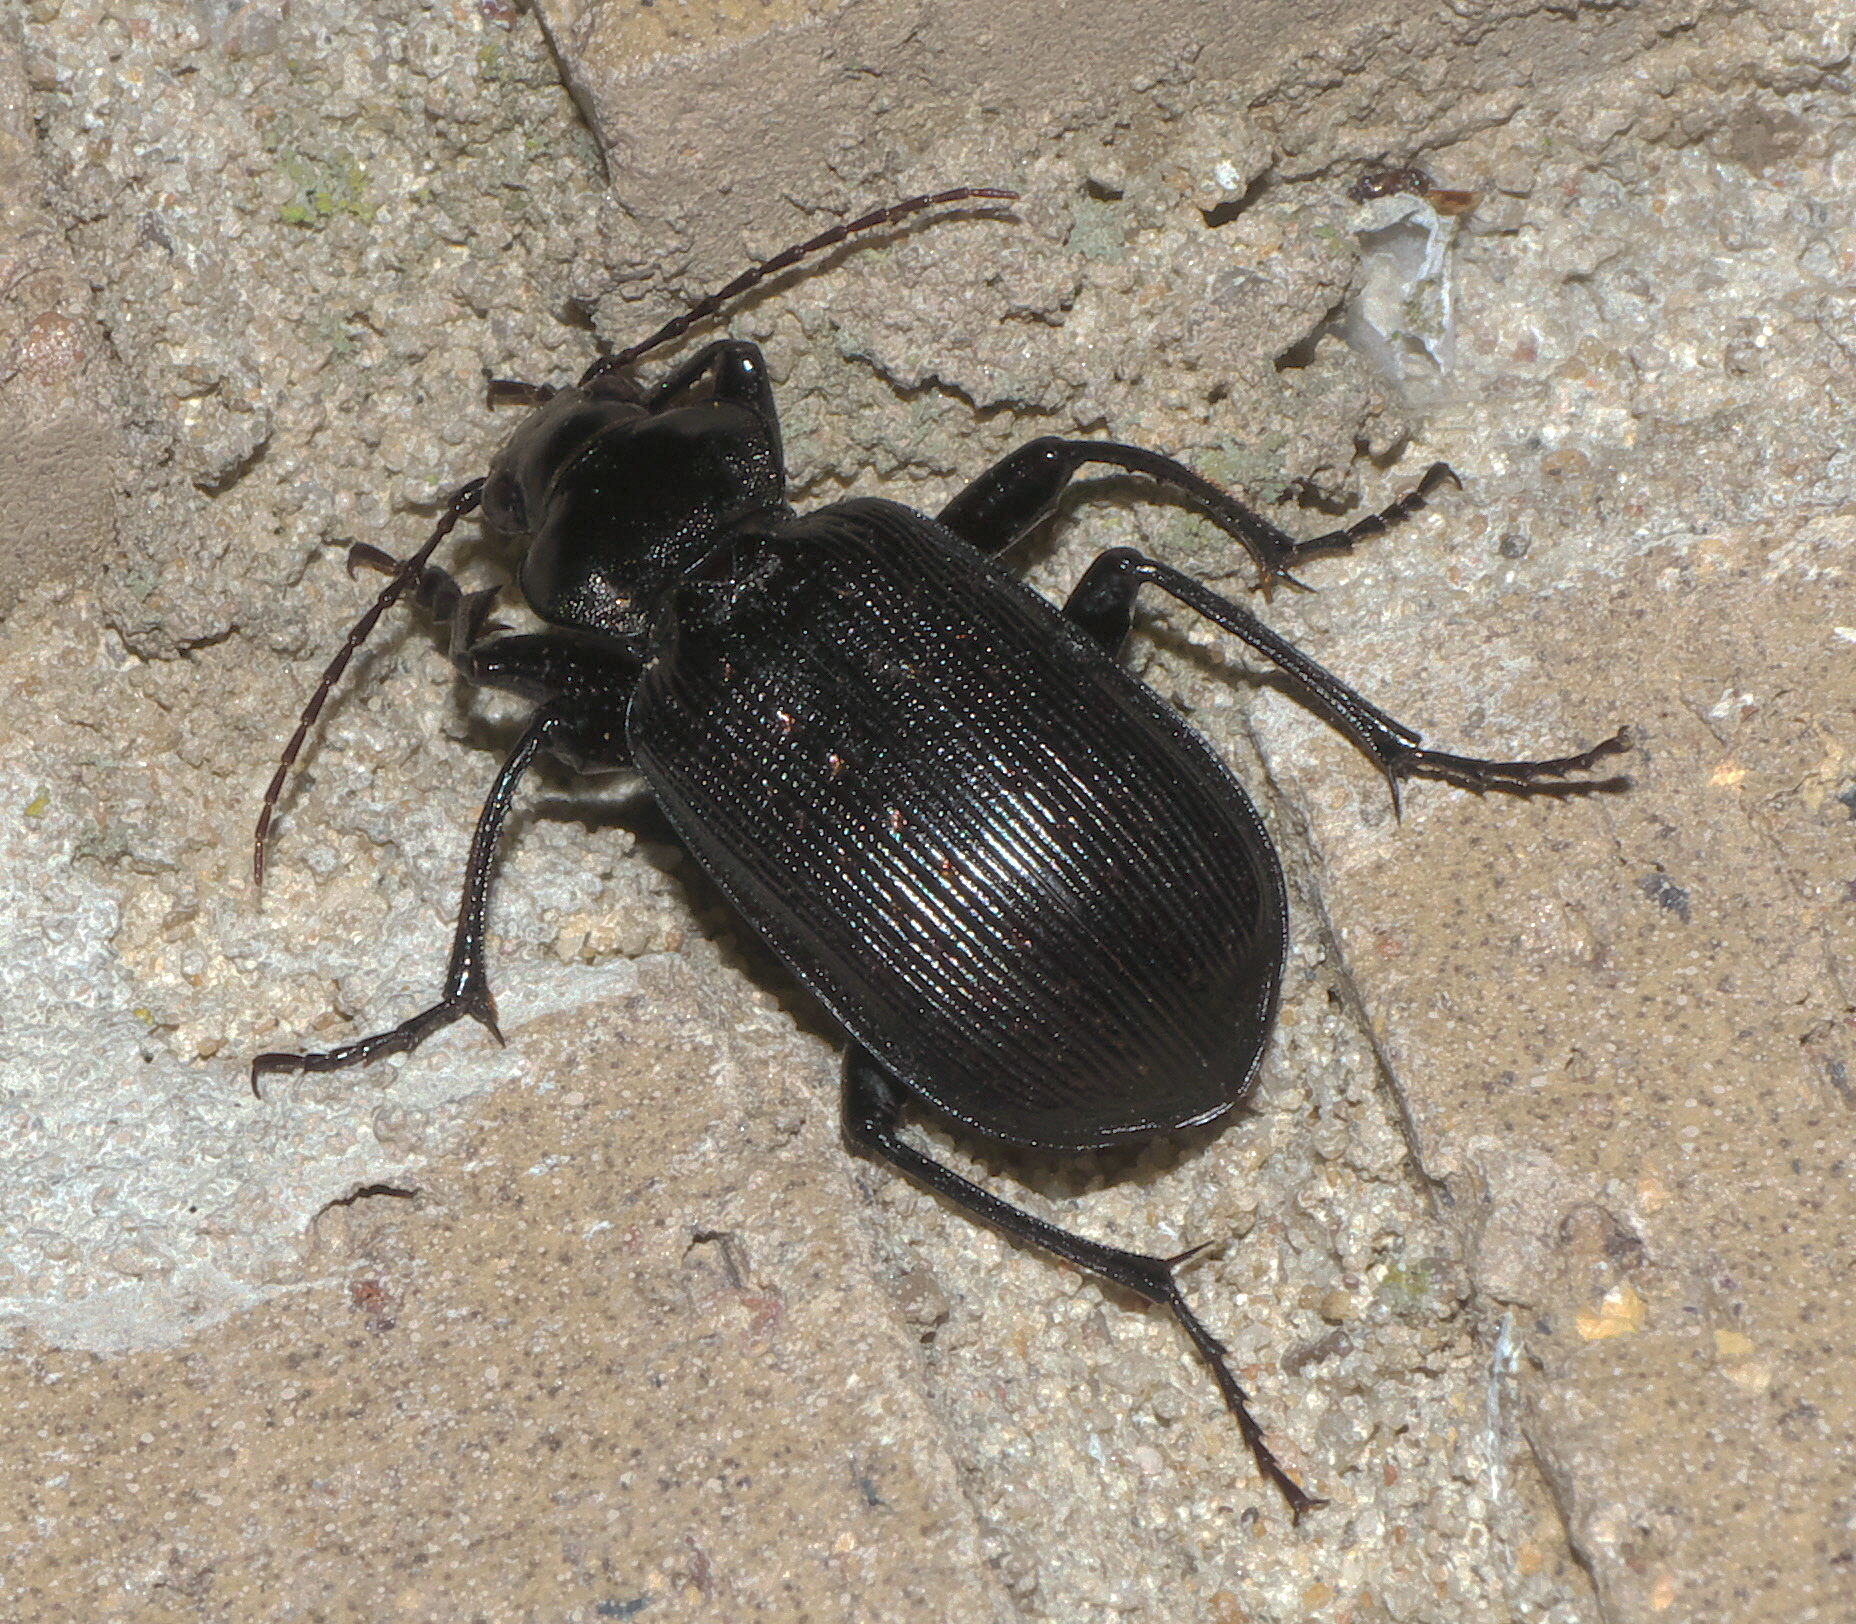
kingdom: Animalia
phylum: Arthropoda
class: Insecta
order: Coleoptera
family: Carabidae
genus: Calosoma
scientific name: Calosoma sayi
